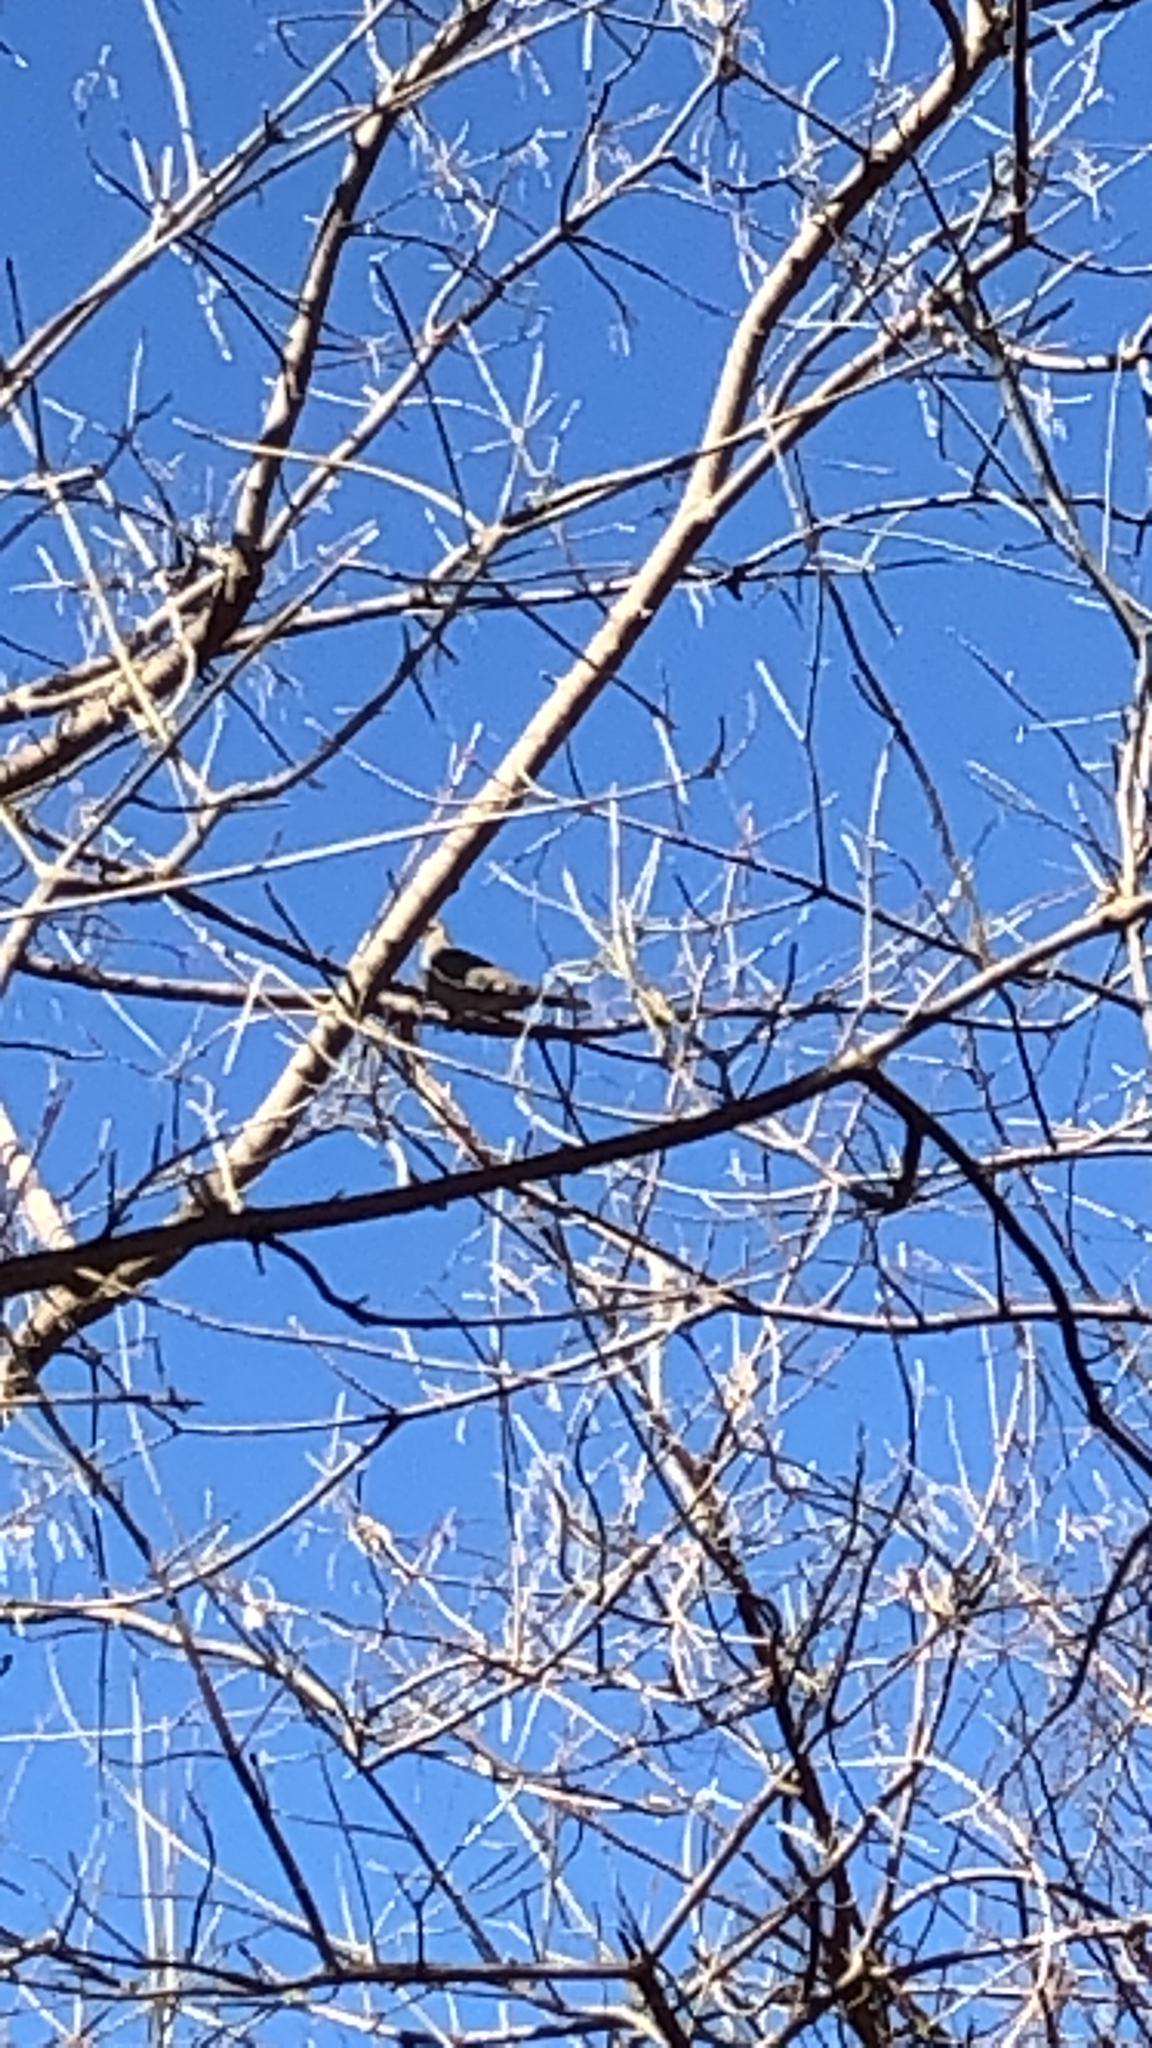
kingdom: Animalia
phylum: Chordata
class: Aves
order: Columbiformes
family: Columbidae
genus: Zenaida
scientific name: Zenaida asiatica
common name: White-winged dove
